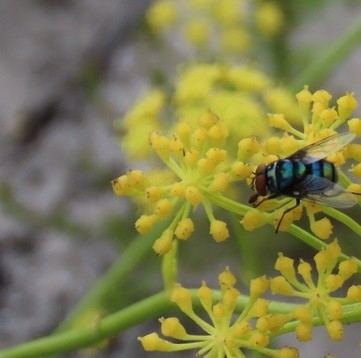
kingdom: Animalia
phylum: Arthropoda
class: Insecta
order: Diptera
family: Calliphoridae
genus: Chrysomya
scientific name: Chrysomya chloropyga
